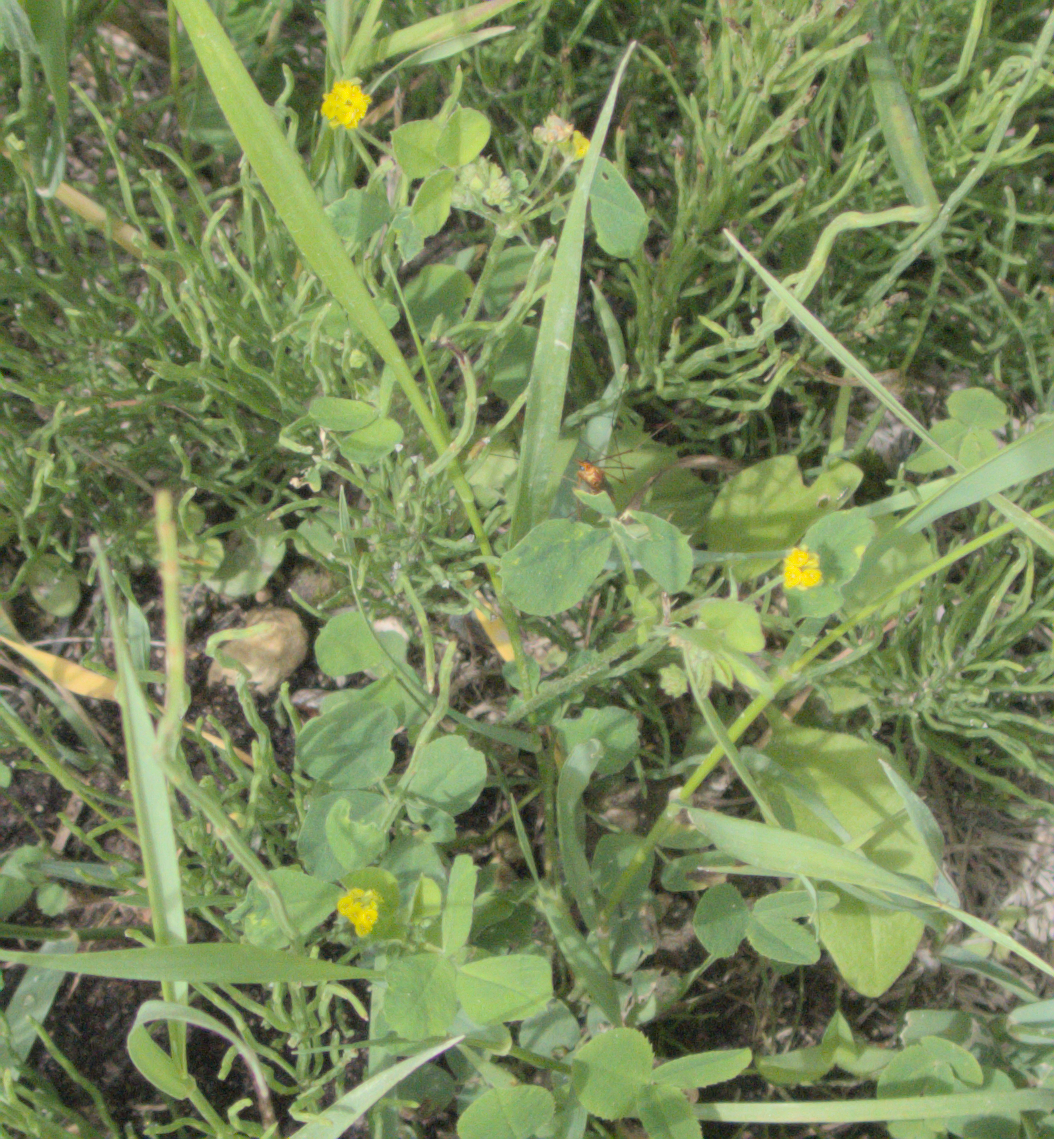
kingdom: Plantae
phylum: Tracheophyta
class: Magnoliopsida
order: Fabales
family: Fabaceae
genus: Medicago
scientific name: Medicago lupulina
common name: Black medick
